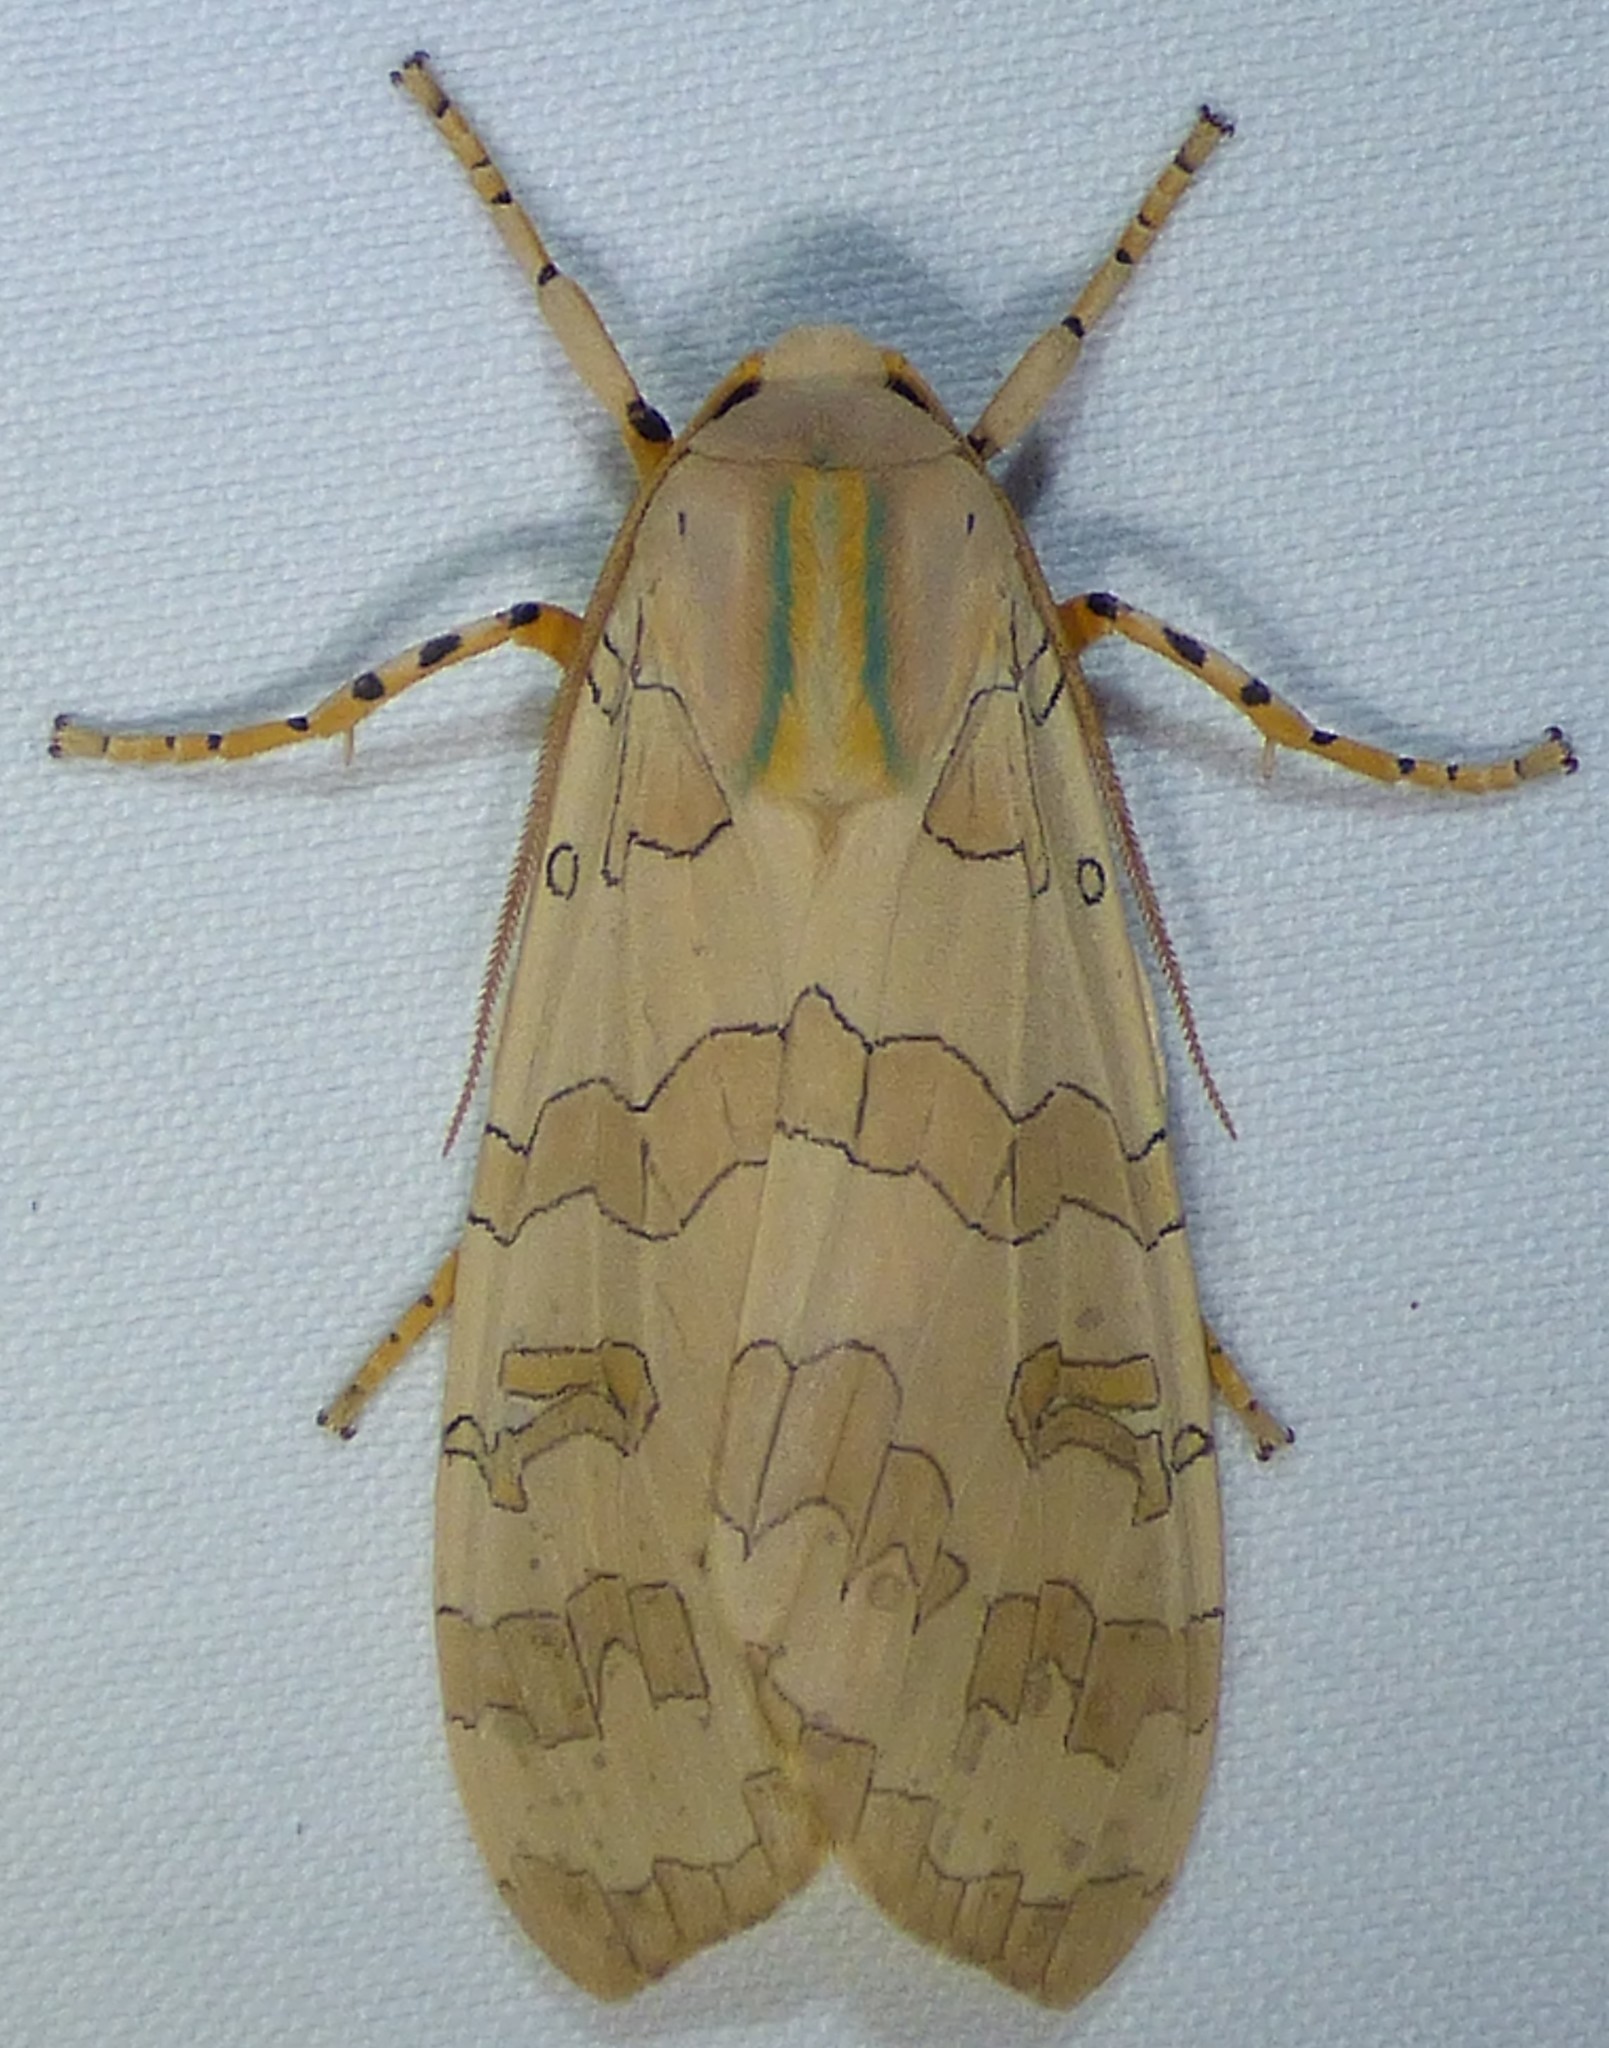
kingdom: Animalia
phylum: Arthropoda
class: Insecta
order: Lepidoptera
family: Erebidae
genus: Halysidota
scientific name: Halysidota
